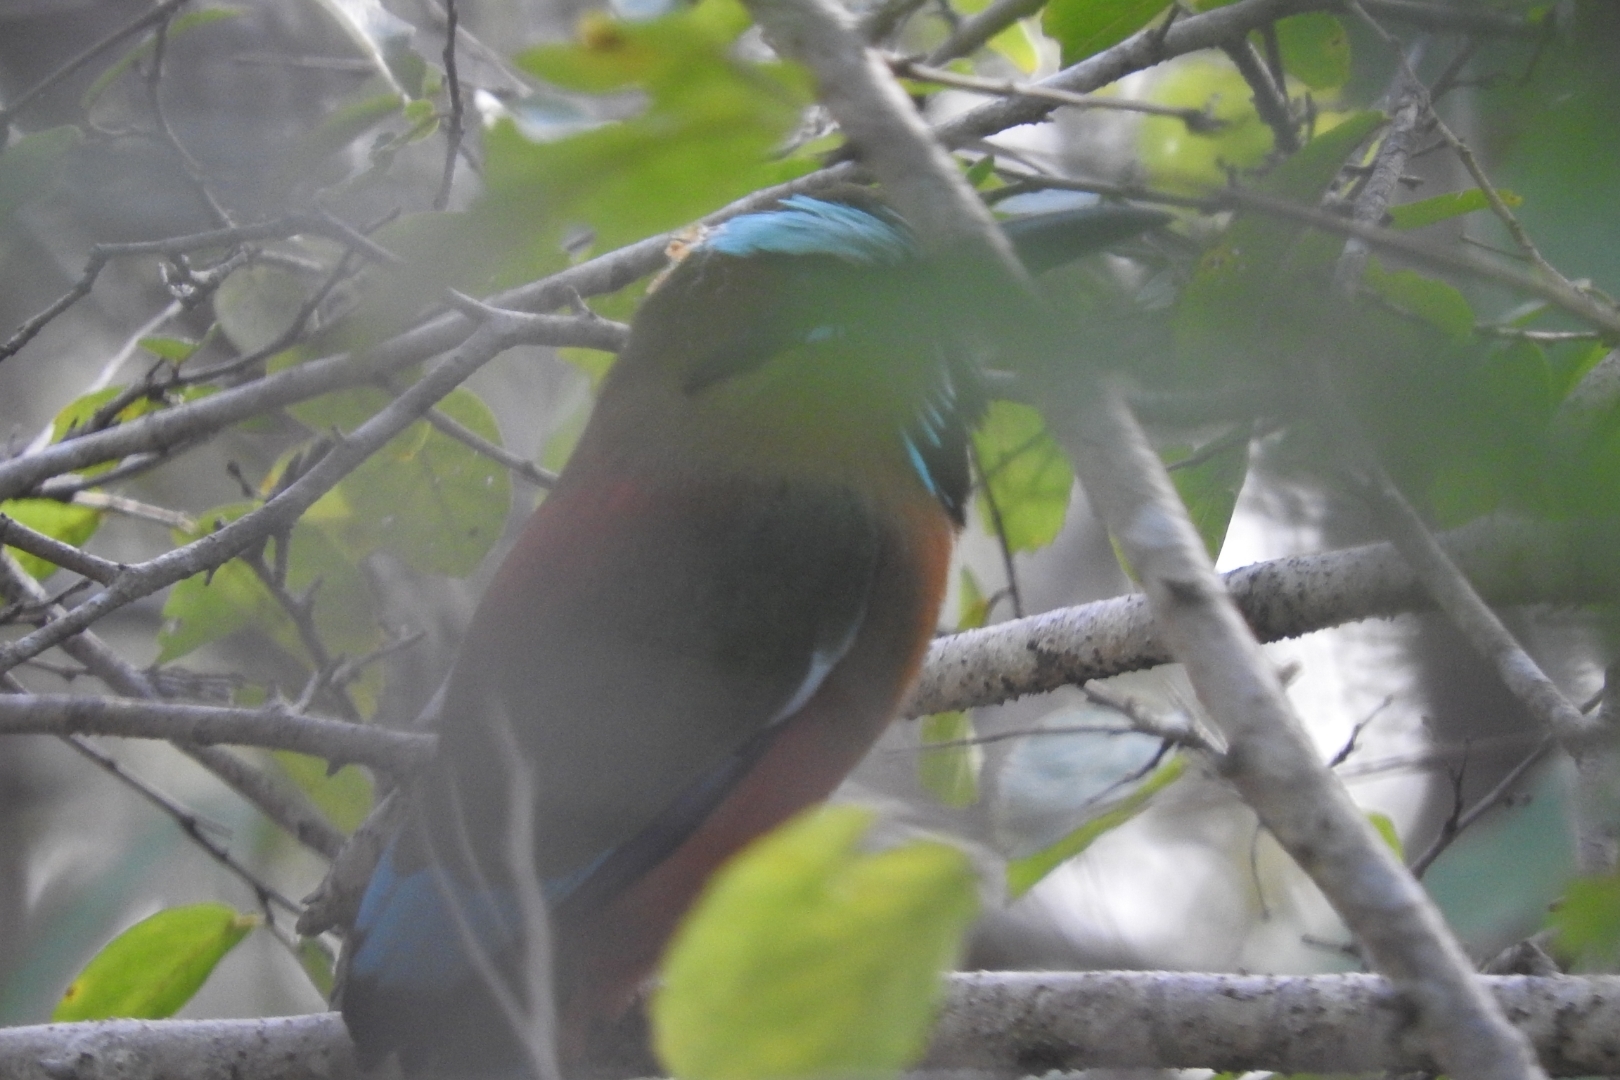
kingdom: Animalia
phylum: Chordata
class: Aves
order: Coraciiformes
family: Momotidae
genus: Eumomota
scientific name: Eumomota superciliosa
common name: Turquoise-browed motmot
